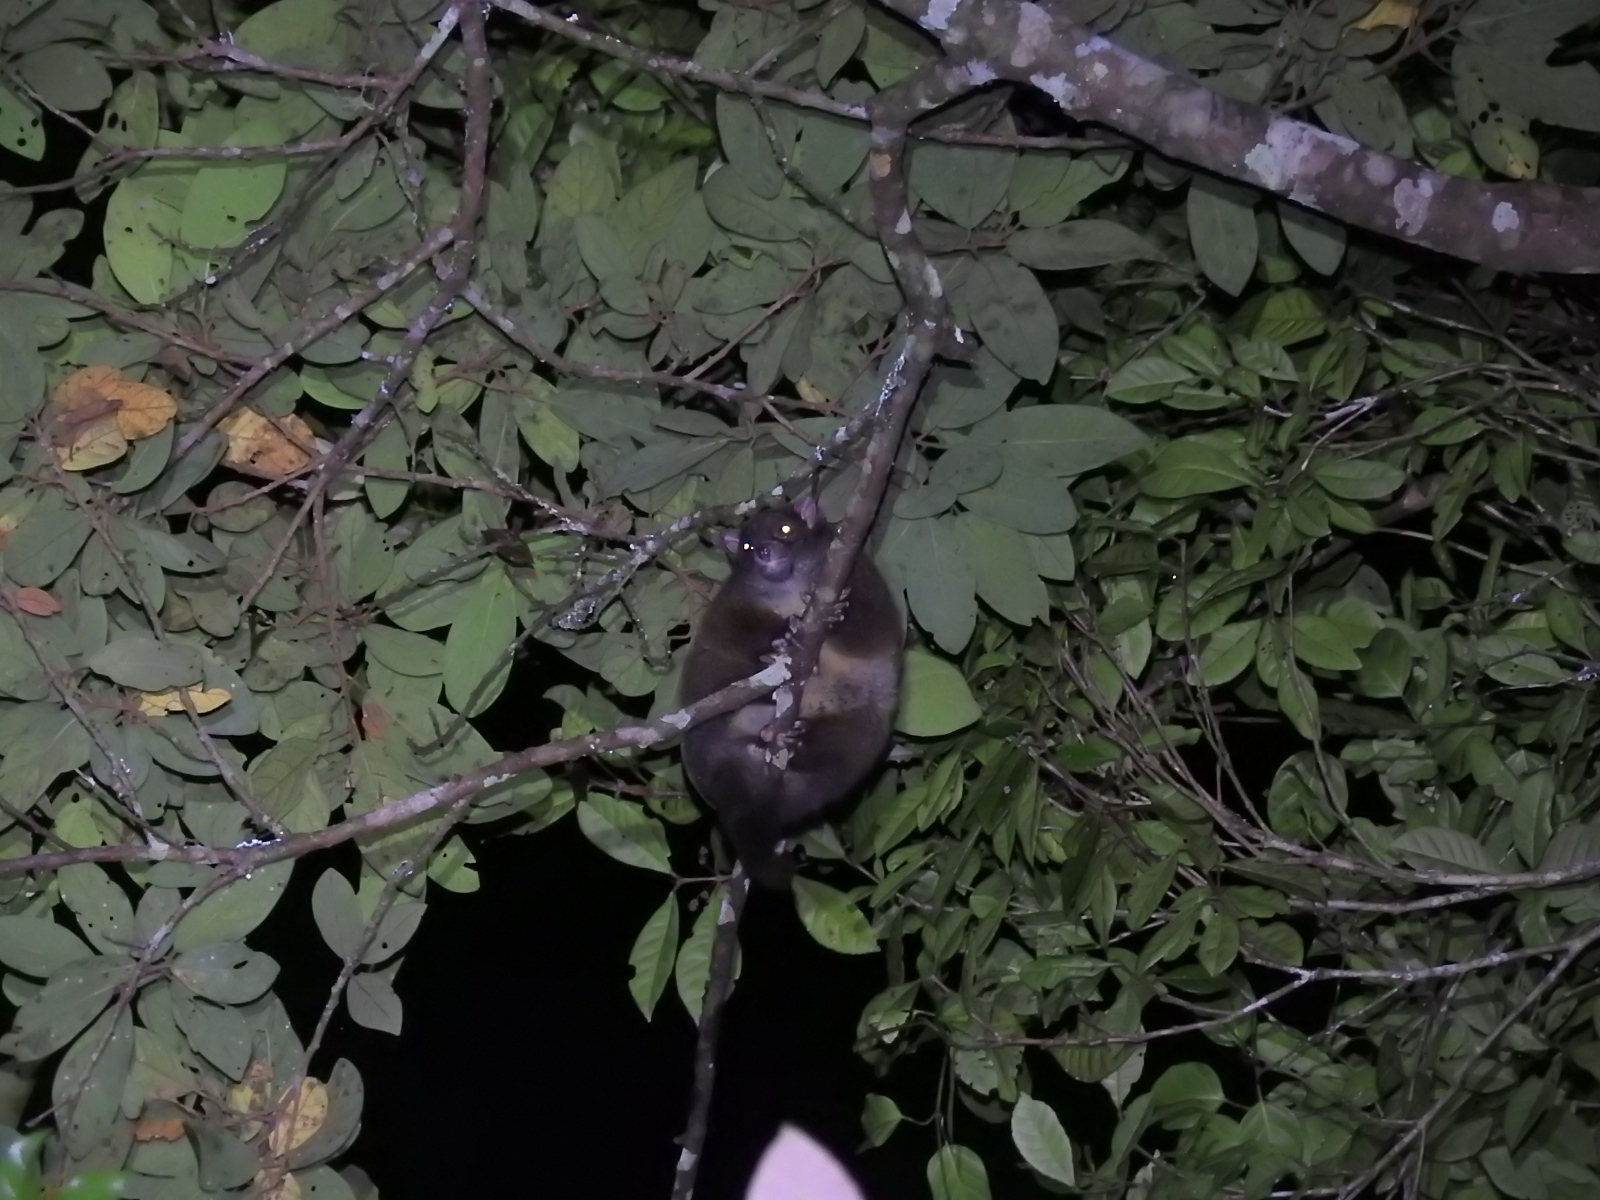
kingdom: Animalia
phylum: Chordata
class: Mammalia
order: Diprotodontia
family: Pseudocheiridae
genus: Hemibelideus
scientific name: Hemibelideus lemuroides
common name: Lemur-like ringtail
